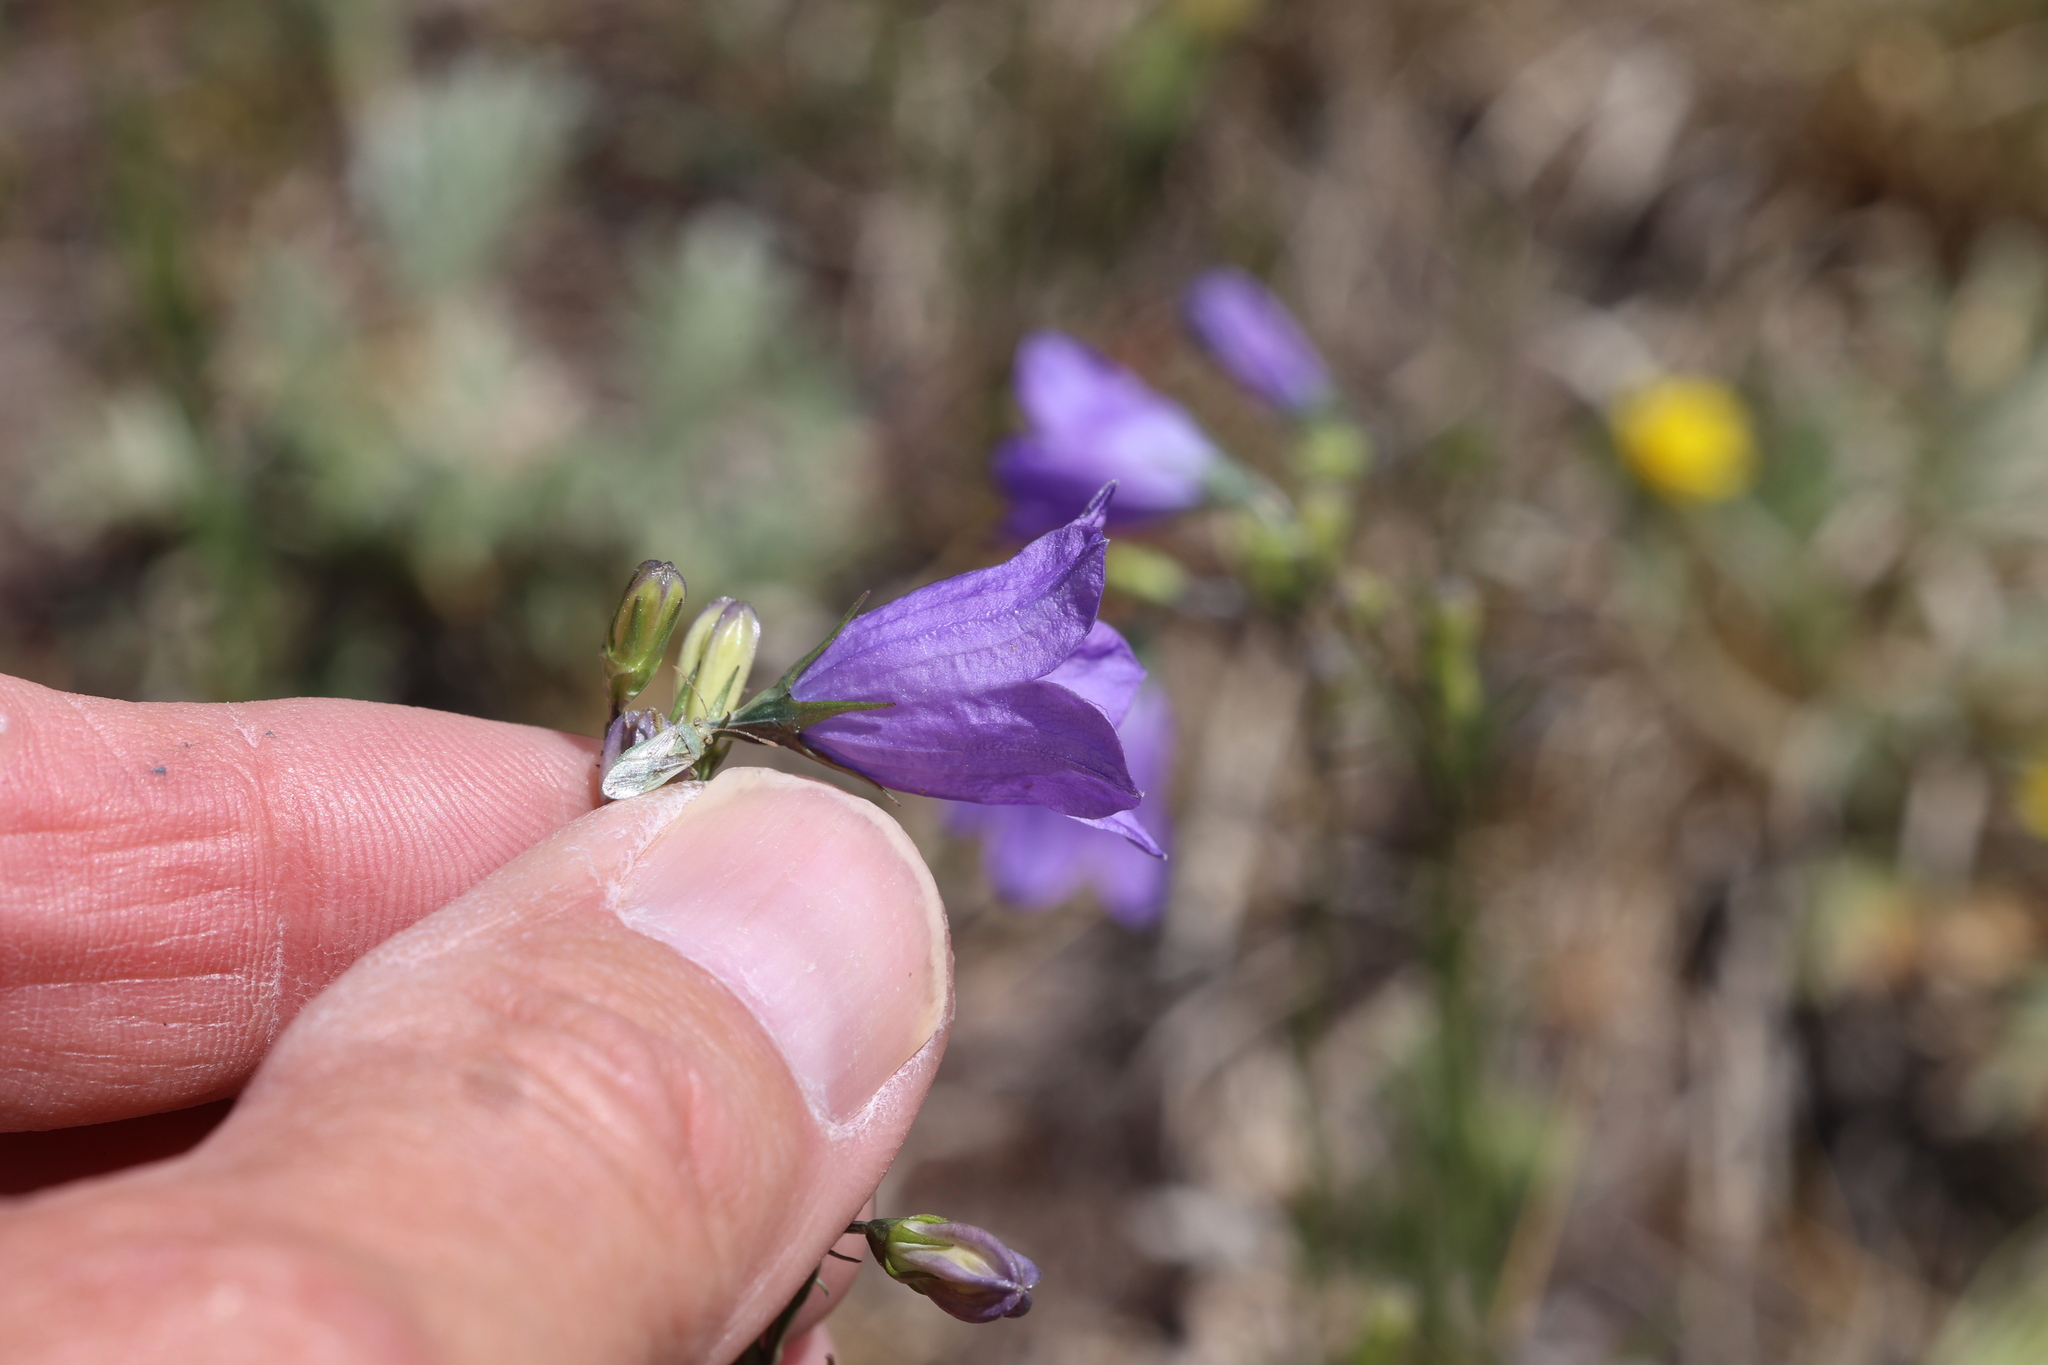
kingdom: Plantae
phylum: Tracheophyta
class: Magnoliopsida
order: Asterales
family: Campanulaceae
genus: Campanula
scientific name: Campanula petiolata
